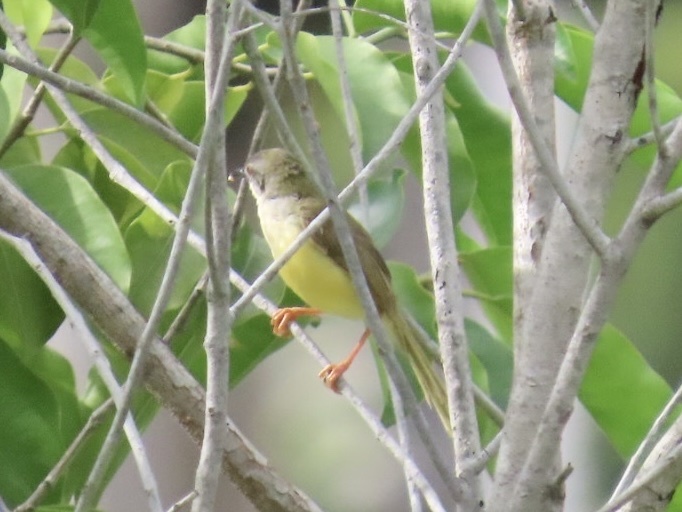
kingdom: Animalia
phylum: Chordata
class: Aves
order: Passeriformes
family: Cisticolidae
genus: Prinia
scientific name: Prinia flaviventris
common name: Yellow-bellied prinia
